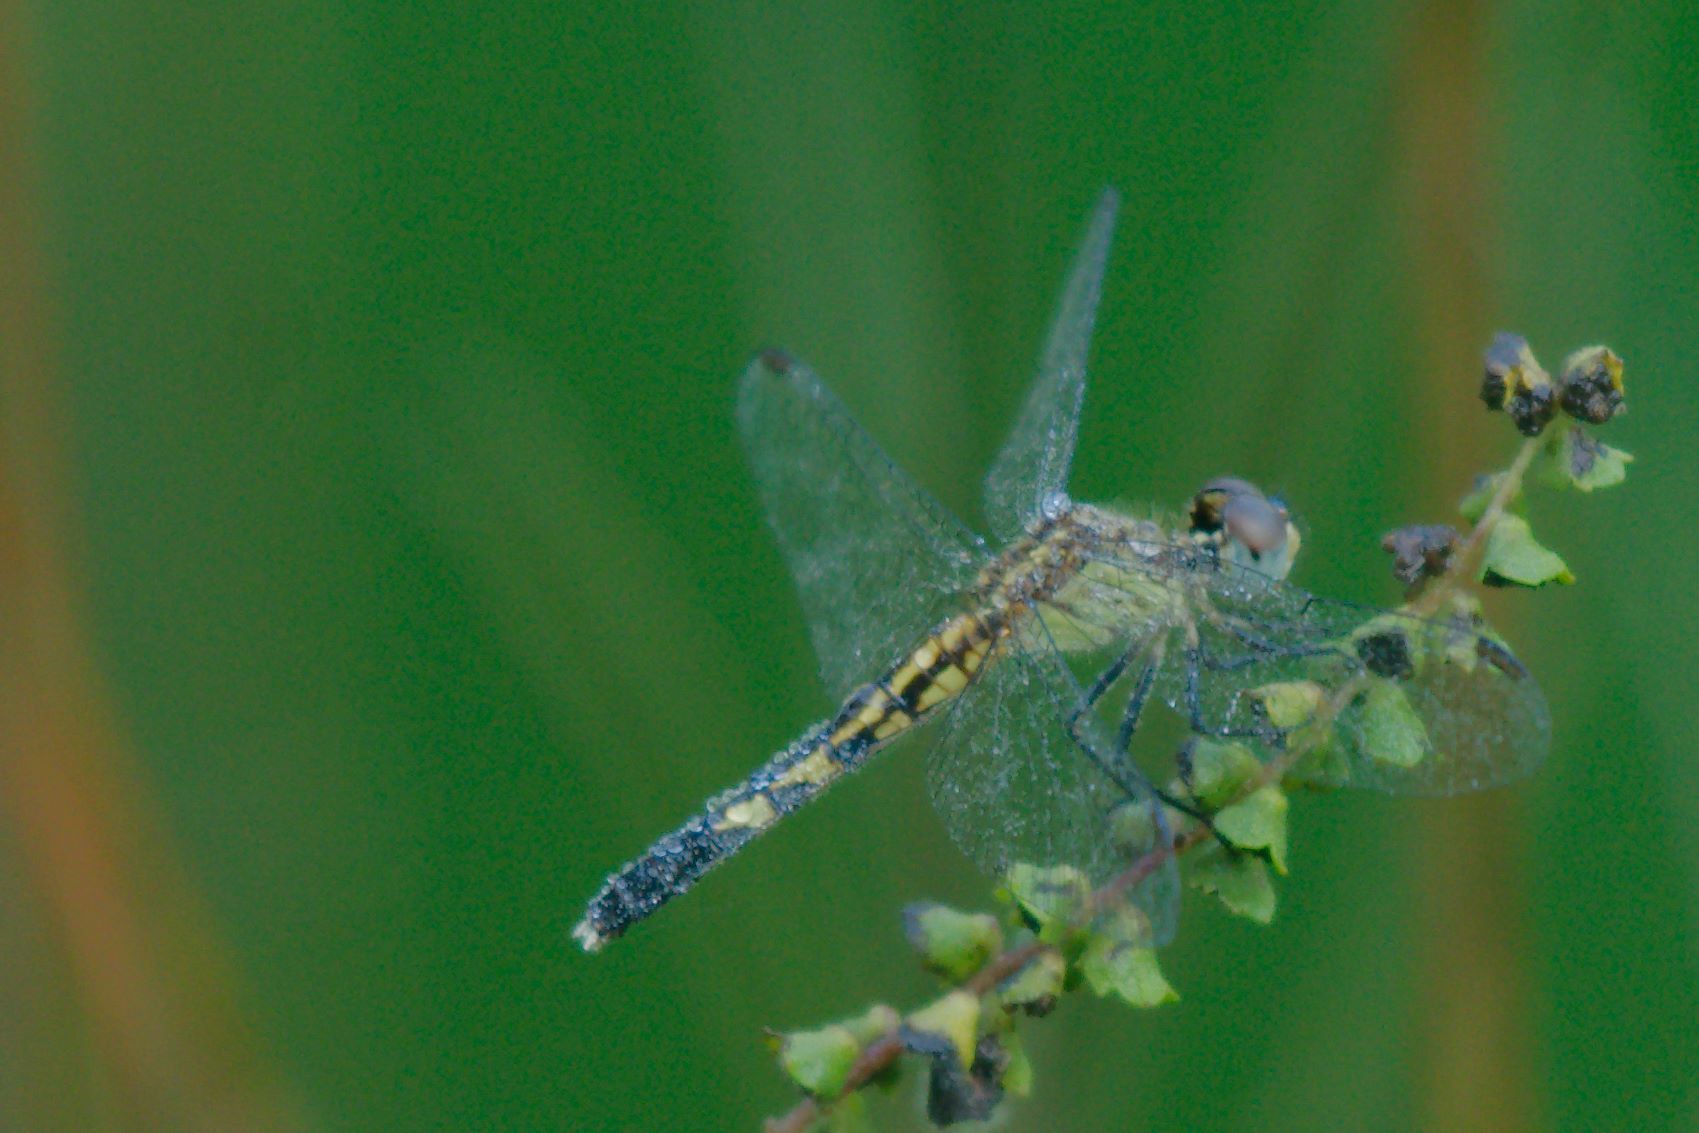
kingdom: Animalia
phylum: Arthropoda
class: Insecta
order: Odonata
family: Libellulidae
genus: Erythrodiplax
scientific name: Erythrodiplax minuscula
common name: Little blue dragonlet
